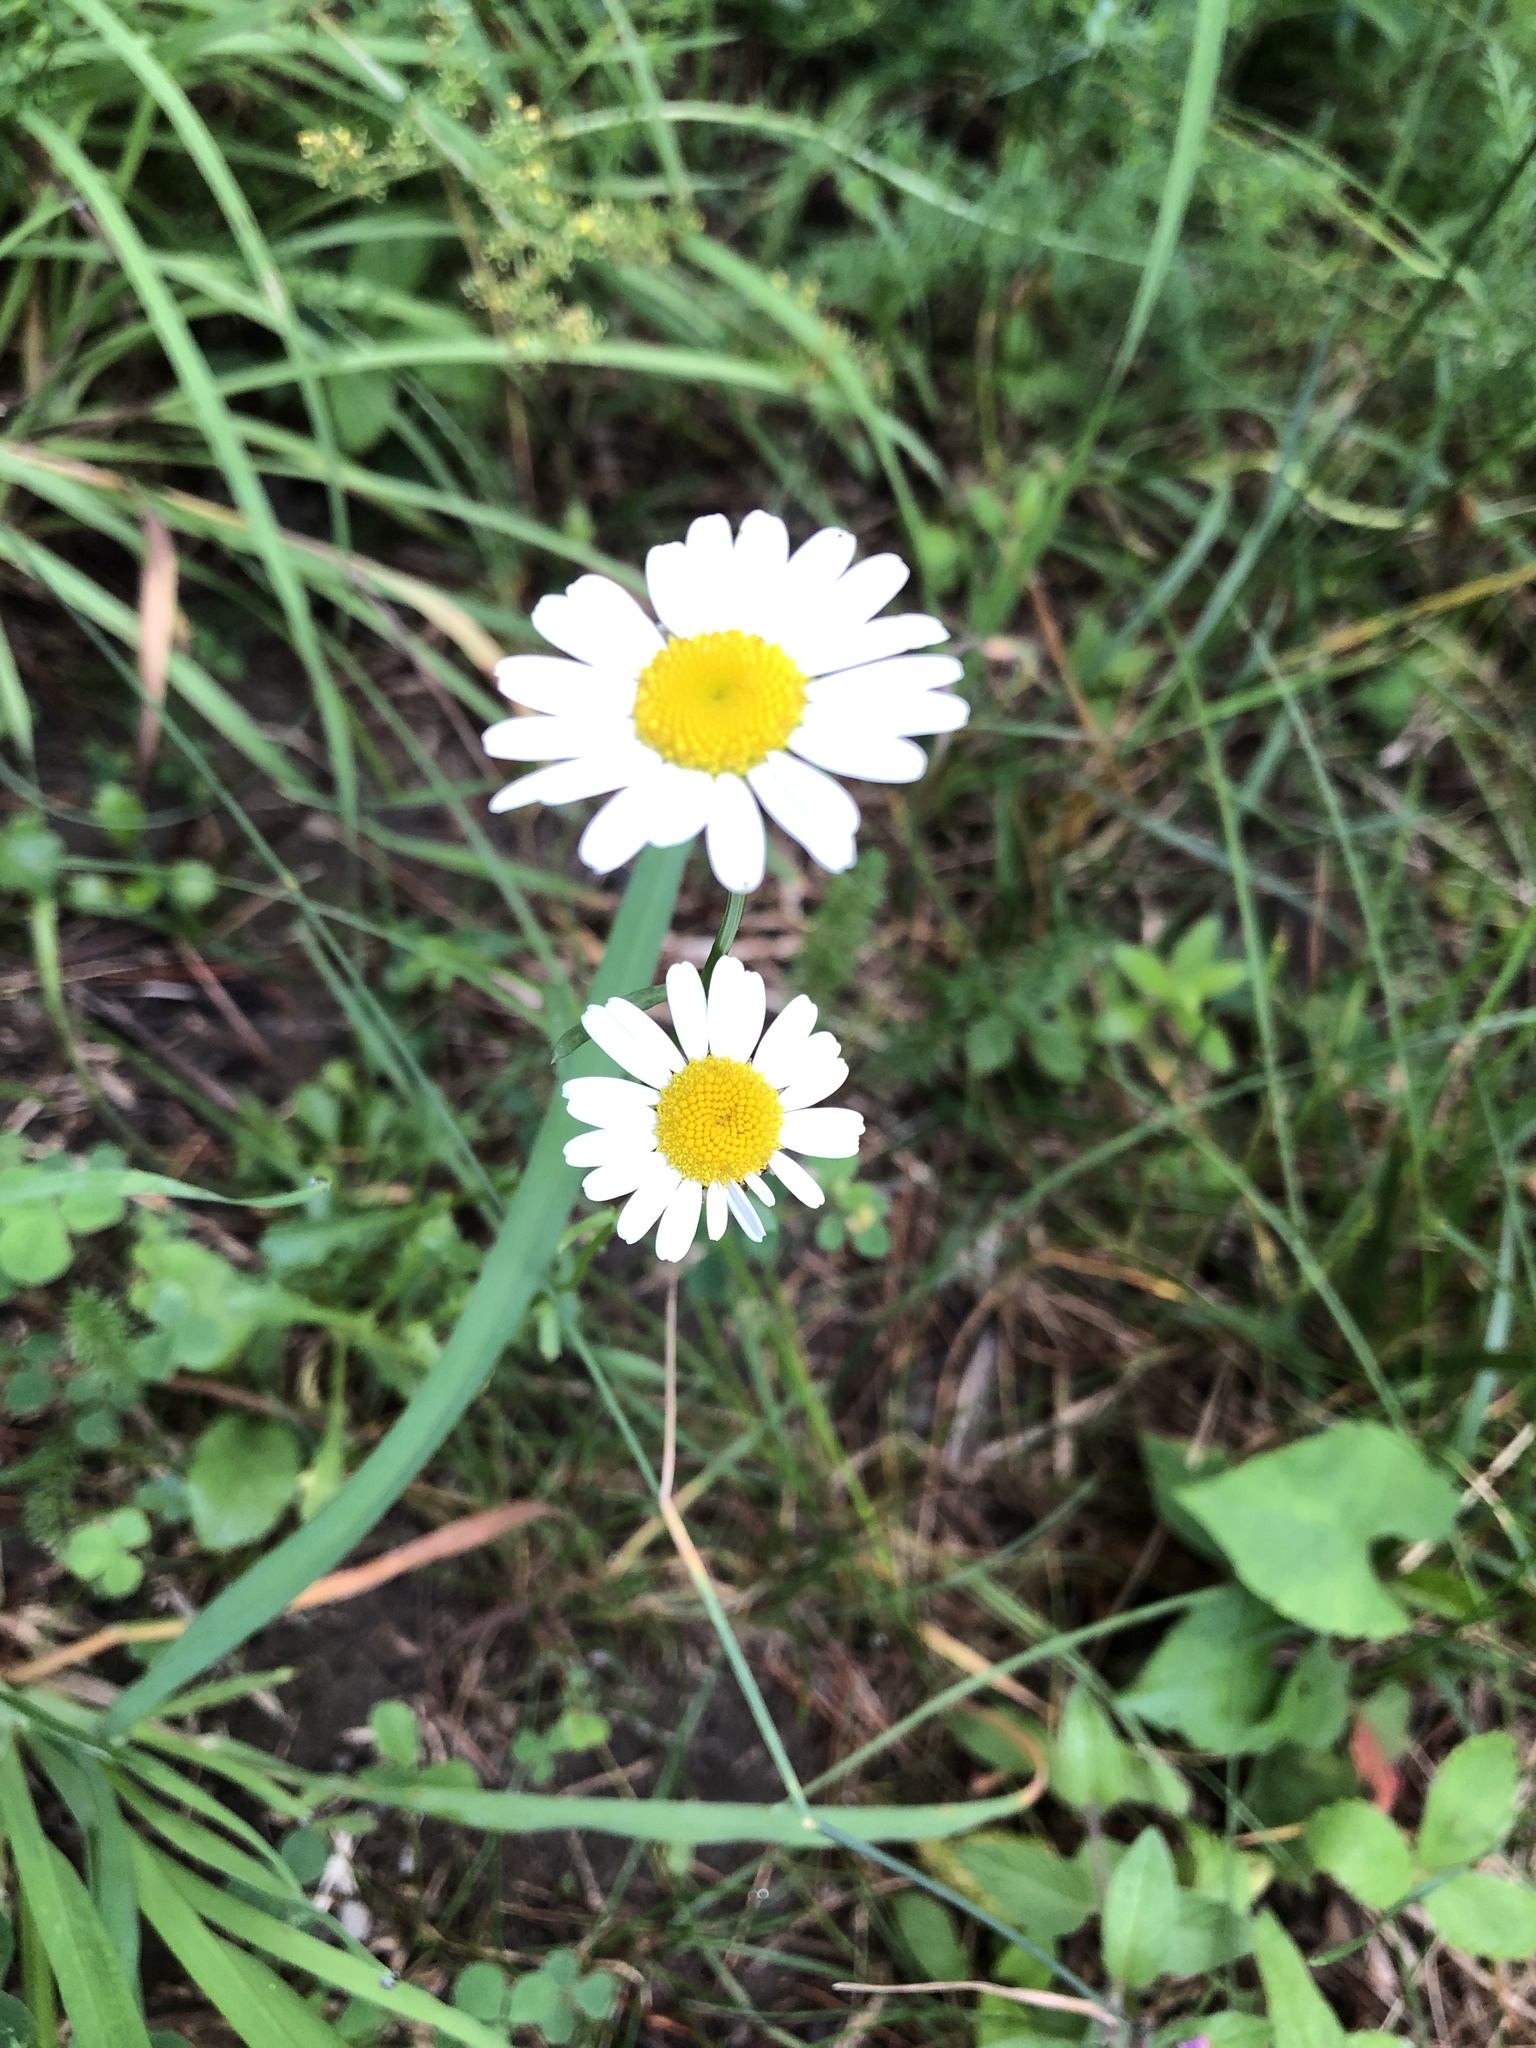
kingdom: Plantae
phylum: Tracheophyta
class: Magnoliopsida
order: Asterales
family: Asteraceae
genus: Leucanthemum
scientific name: Leucanthemum vulgare
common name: Oxeye daisy
